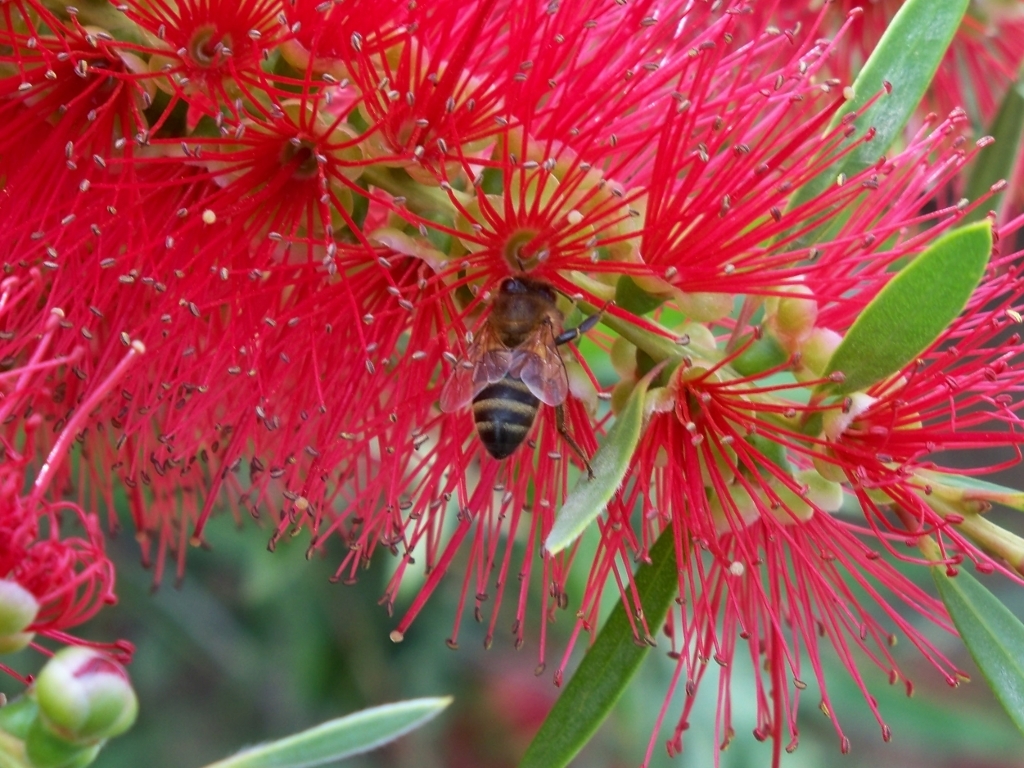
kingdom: Animalia
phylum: Arthropoda
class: Insecta
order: Hymenoptera
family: Apidae
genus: Apis
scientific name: Apis mellifera
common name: Honey bee
